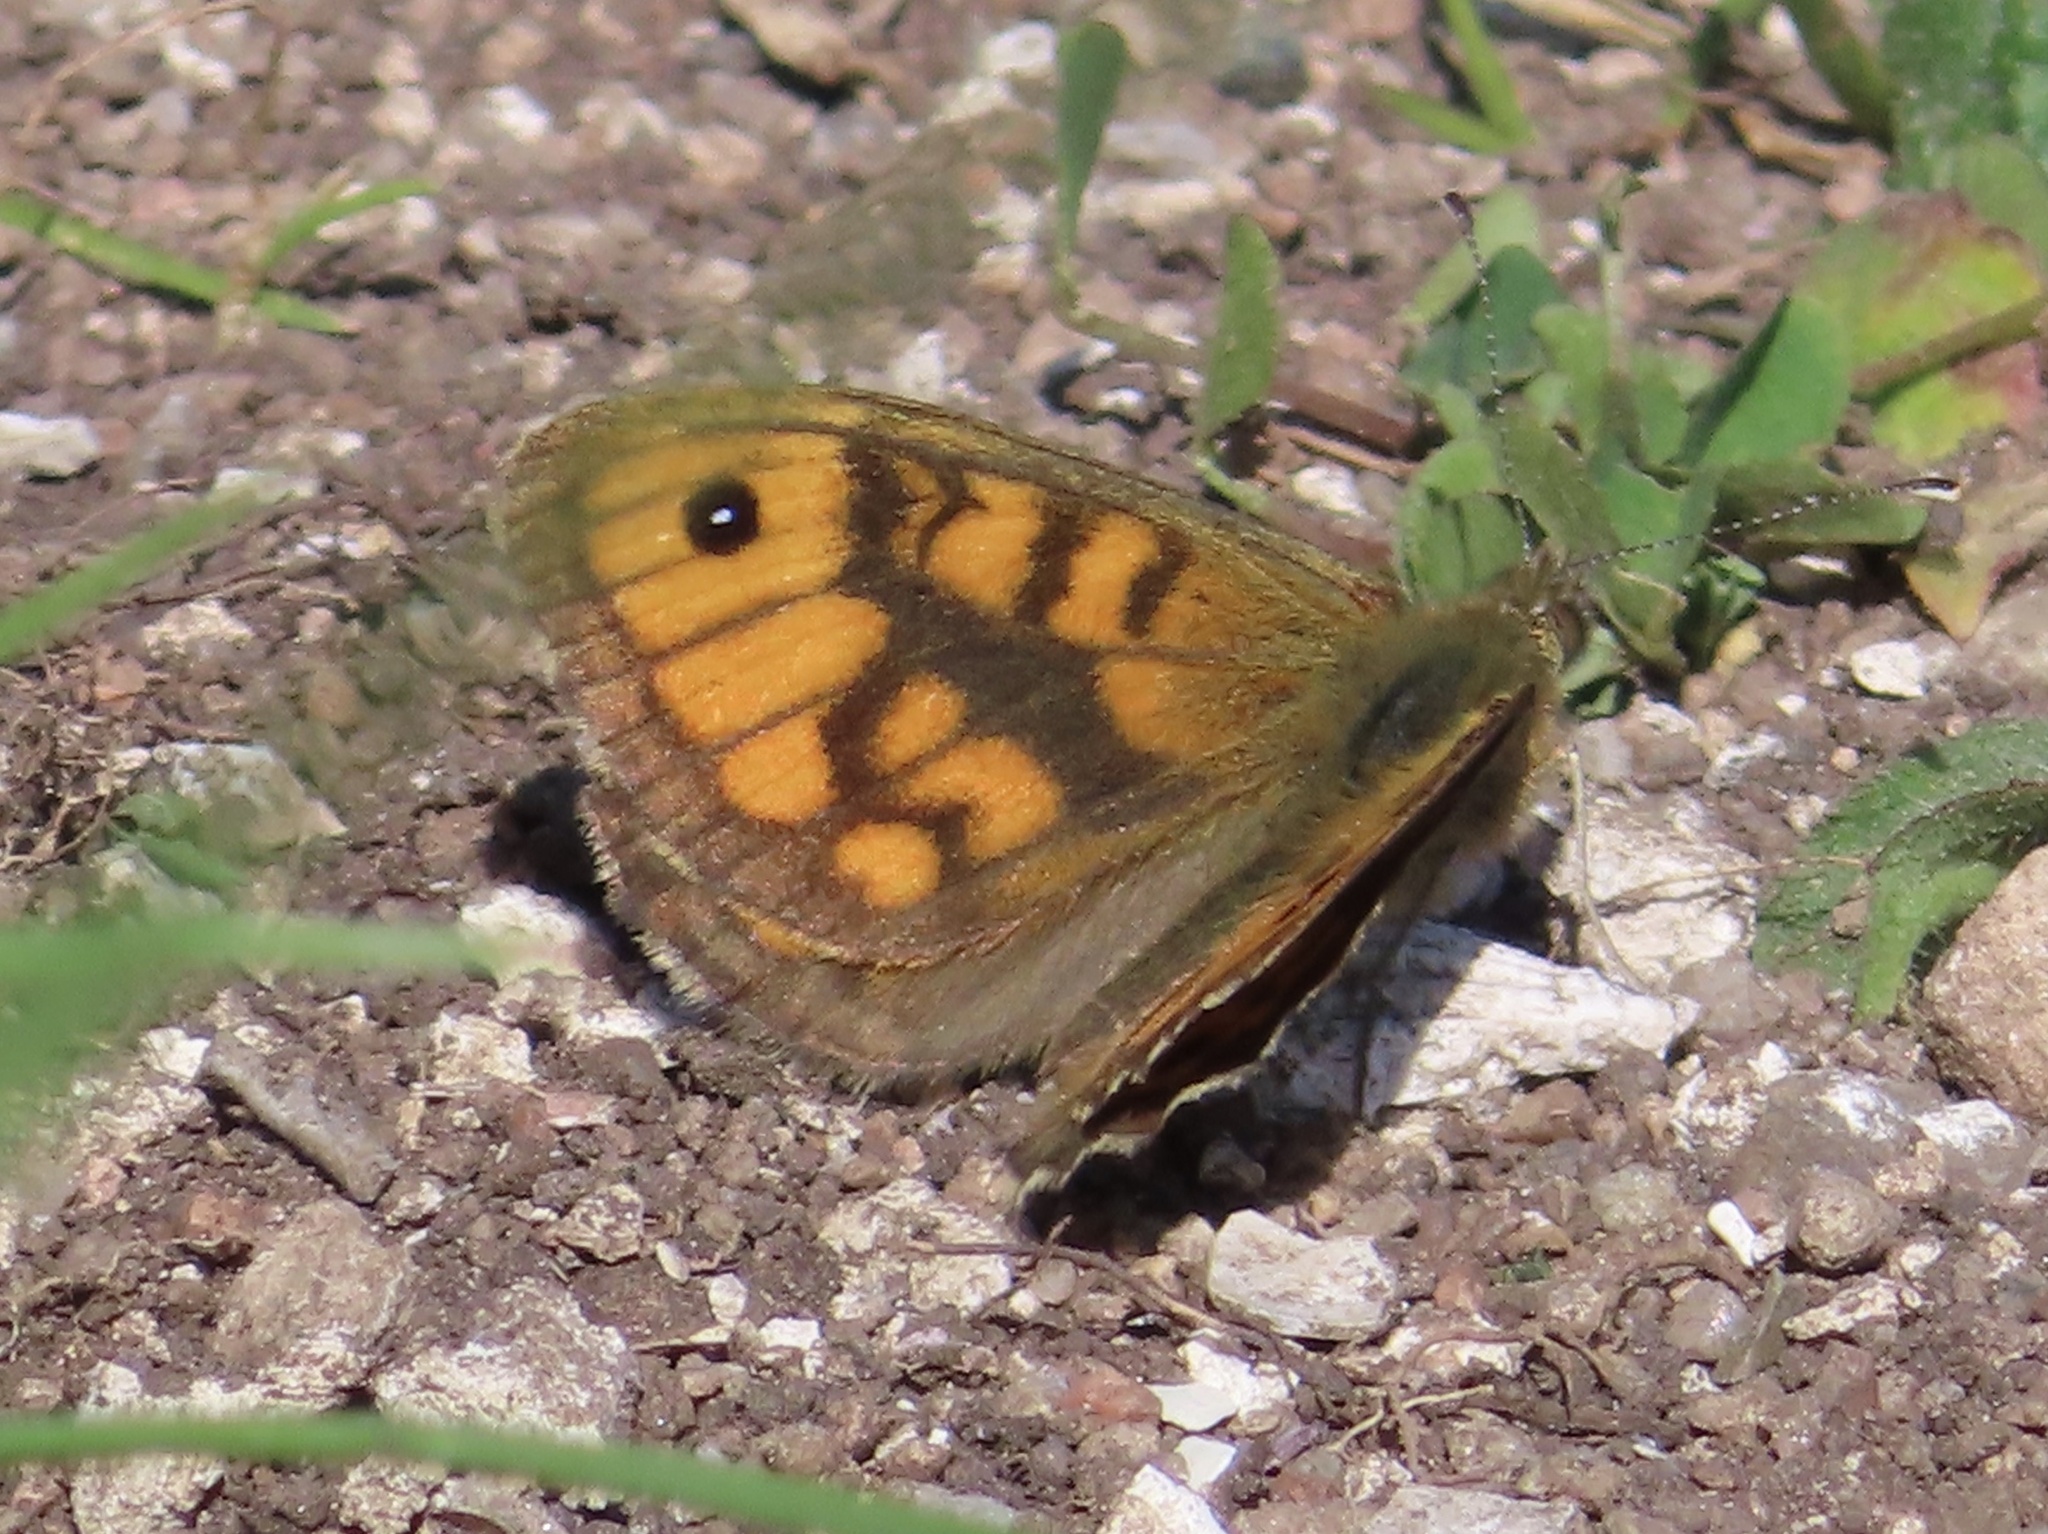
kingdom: Animalia
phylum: Arthropoda
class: Insecta
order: Lepidoptera
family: Nymphalidae
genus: Pararge
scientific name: Pararge Lasiommata megera
